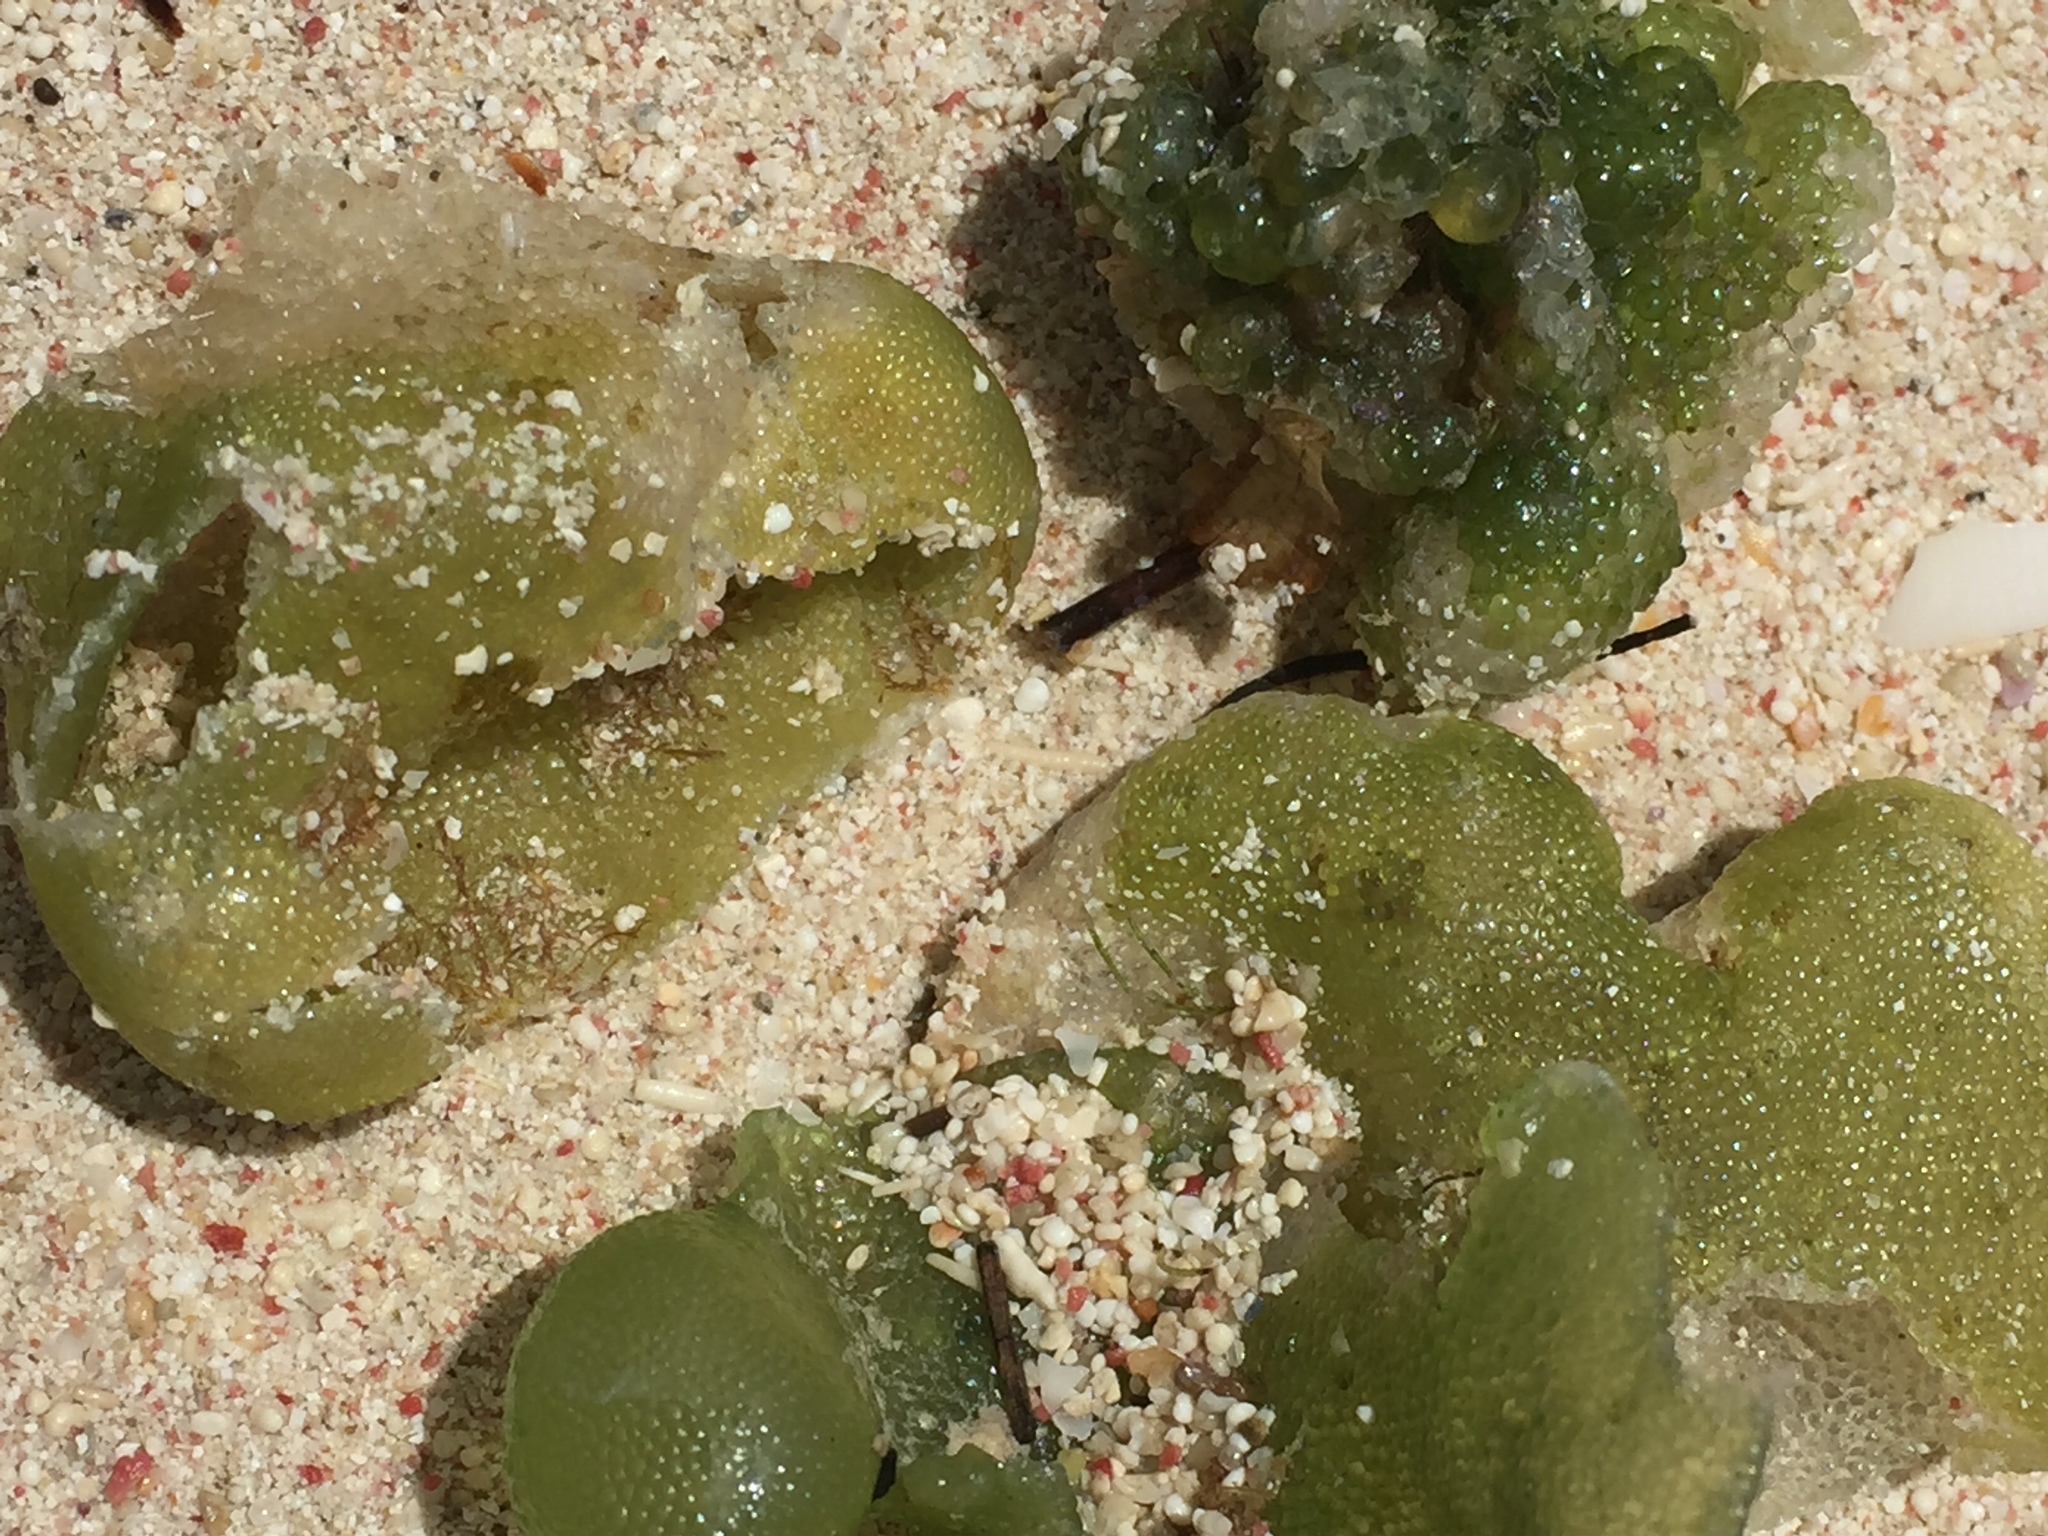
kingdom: Plantae
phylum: Chlorophyta
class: Ulvophyceae
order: Siphonocladales
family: Siphonocladaceae
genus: Dictyosphaeria
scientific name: Dictyosphaeria cavernosa
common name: Green bubble weed
